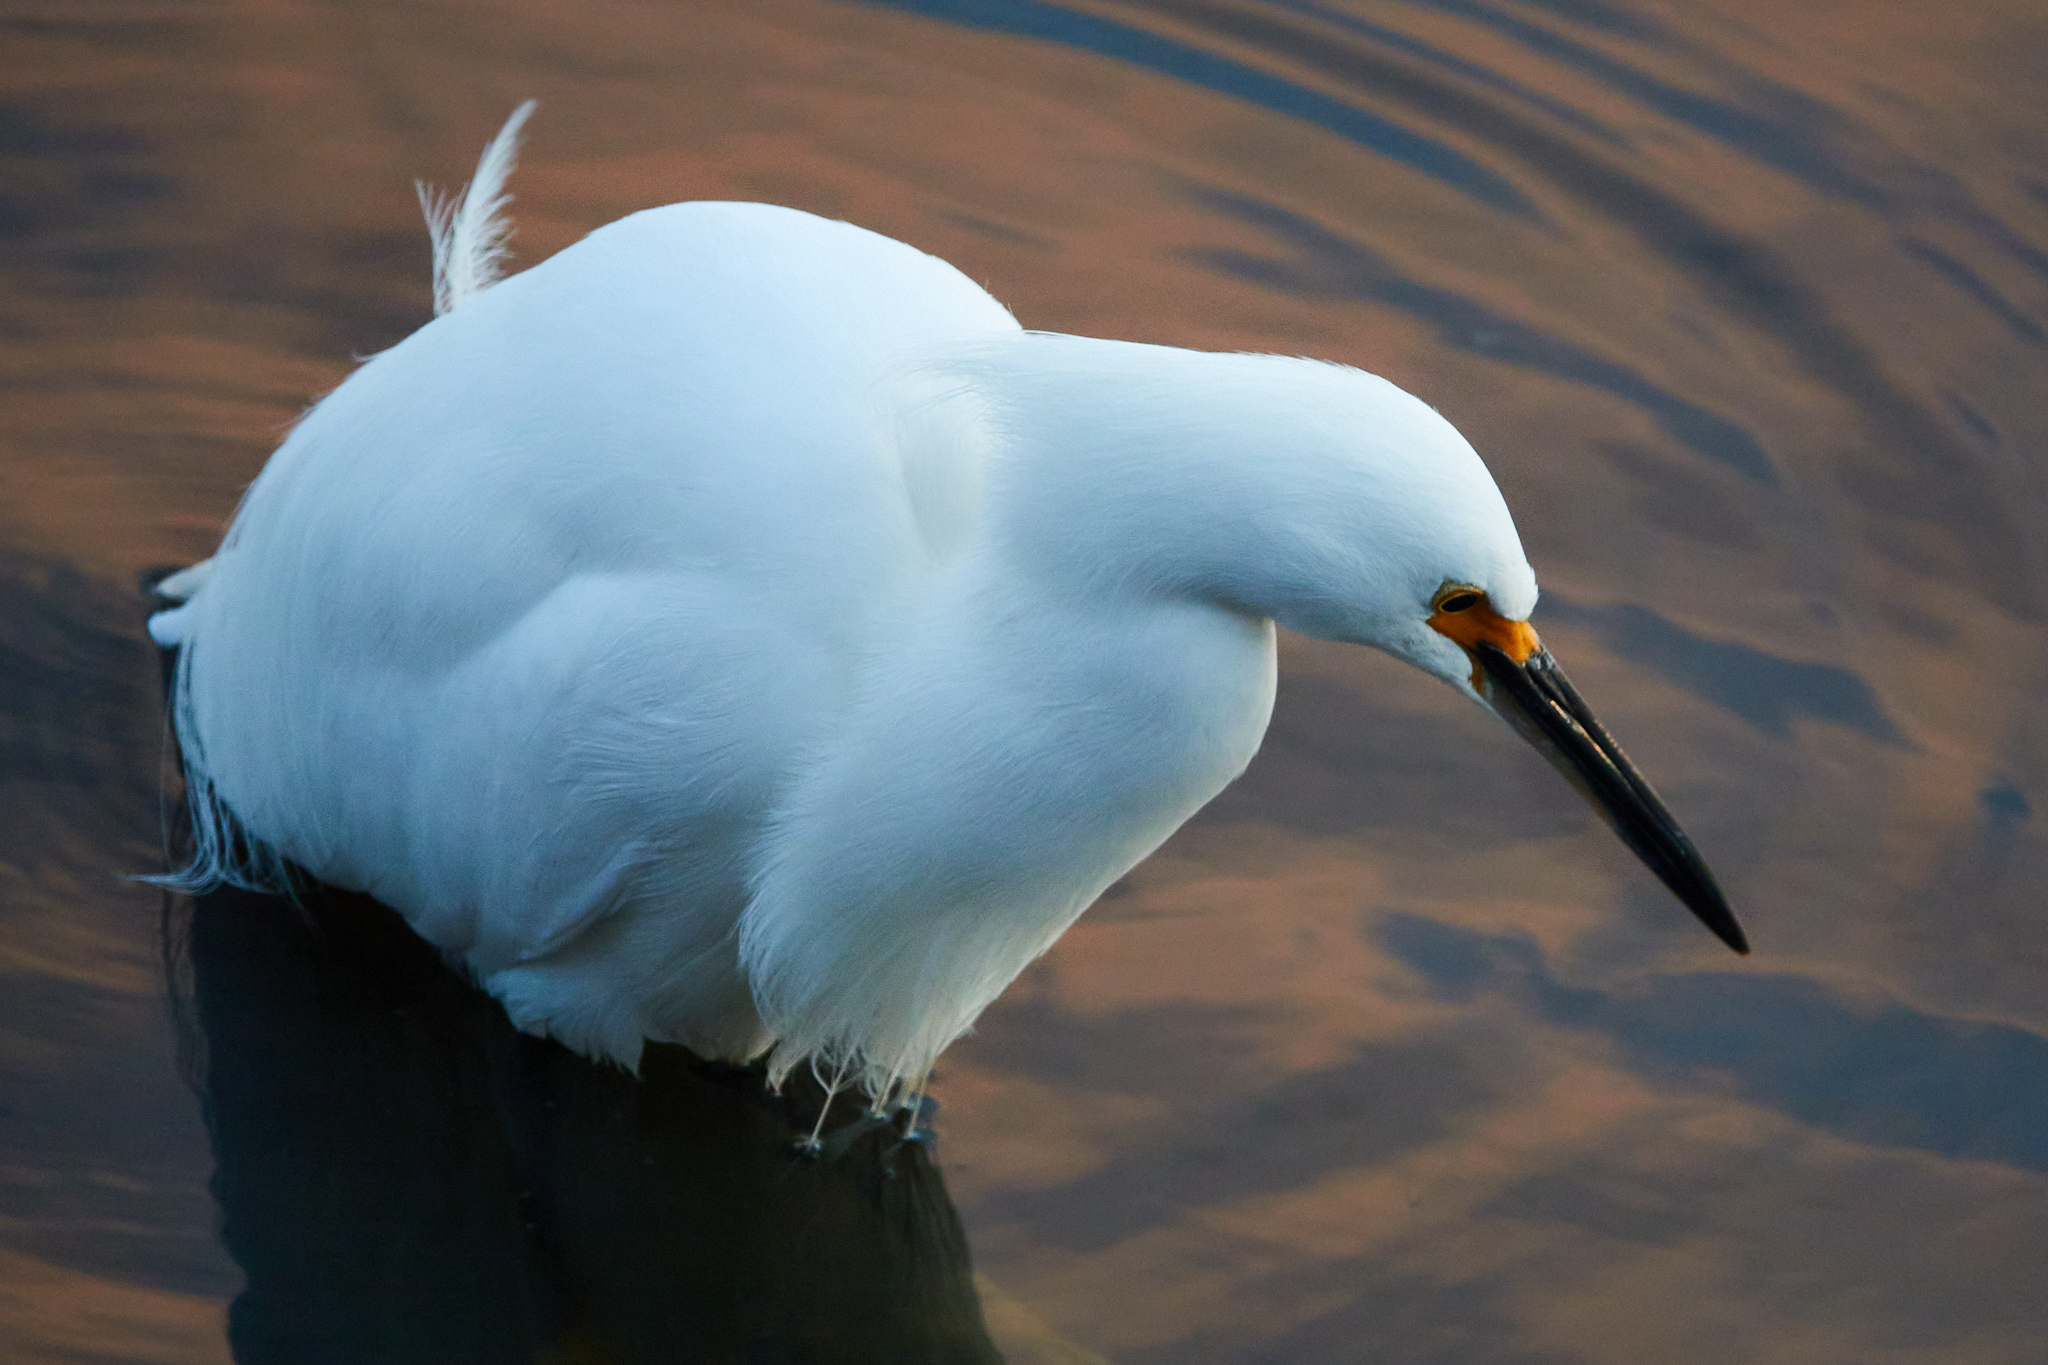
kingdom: Animalia
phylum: Chordata
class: Aves
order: Pelecaniformes
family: Ardeidae
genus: Egretta
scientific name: Egretta thula
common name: Snowy egret
